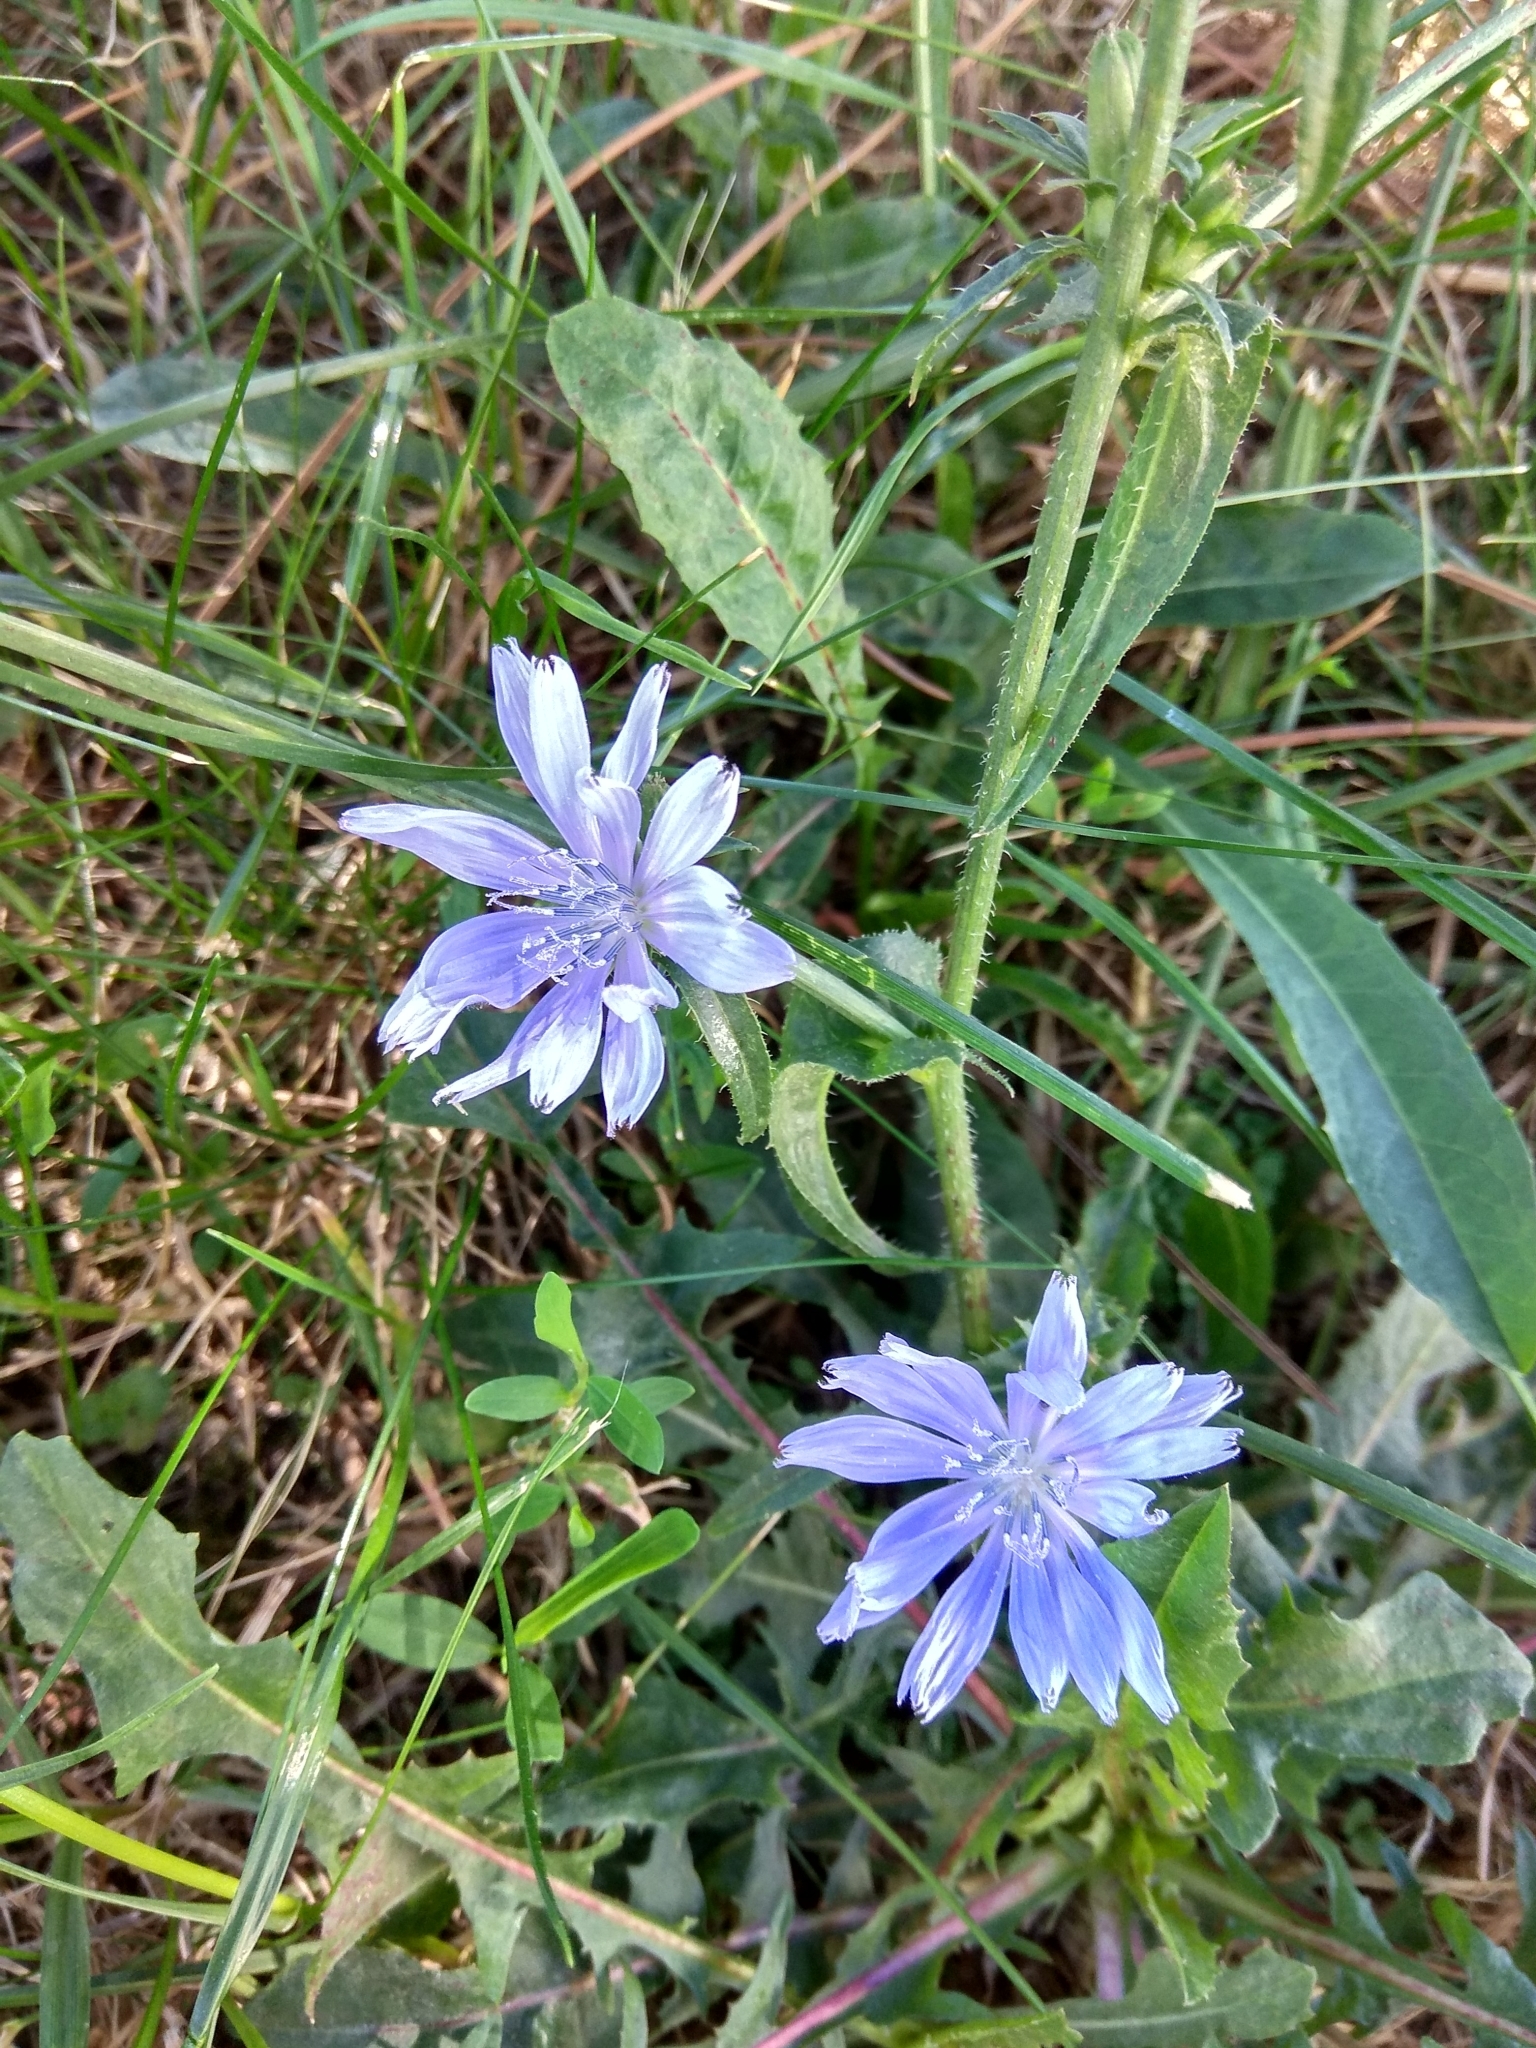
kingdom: Plantae
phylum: Tracheophyta
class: Magnoliopsida
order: Asterales
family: Asteraceae
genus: Cichorium
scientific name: Cichorium intybus
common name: Chicory
